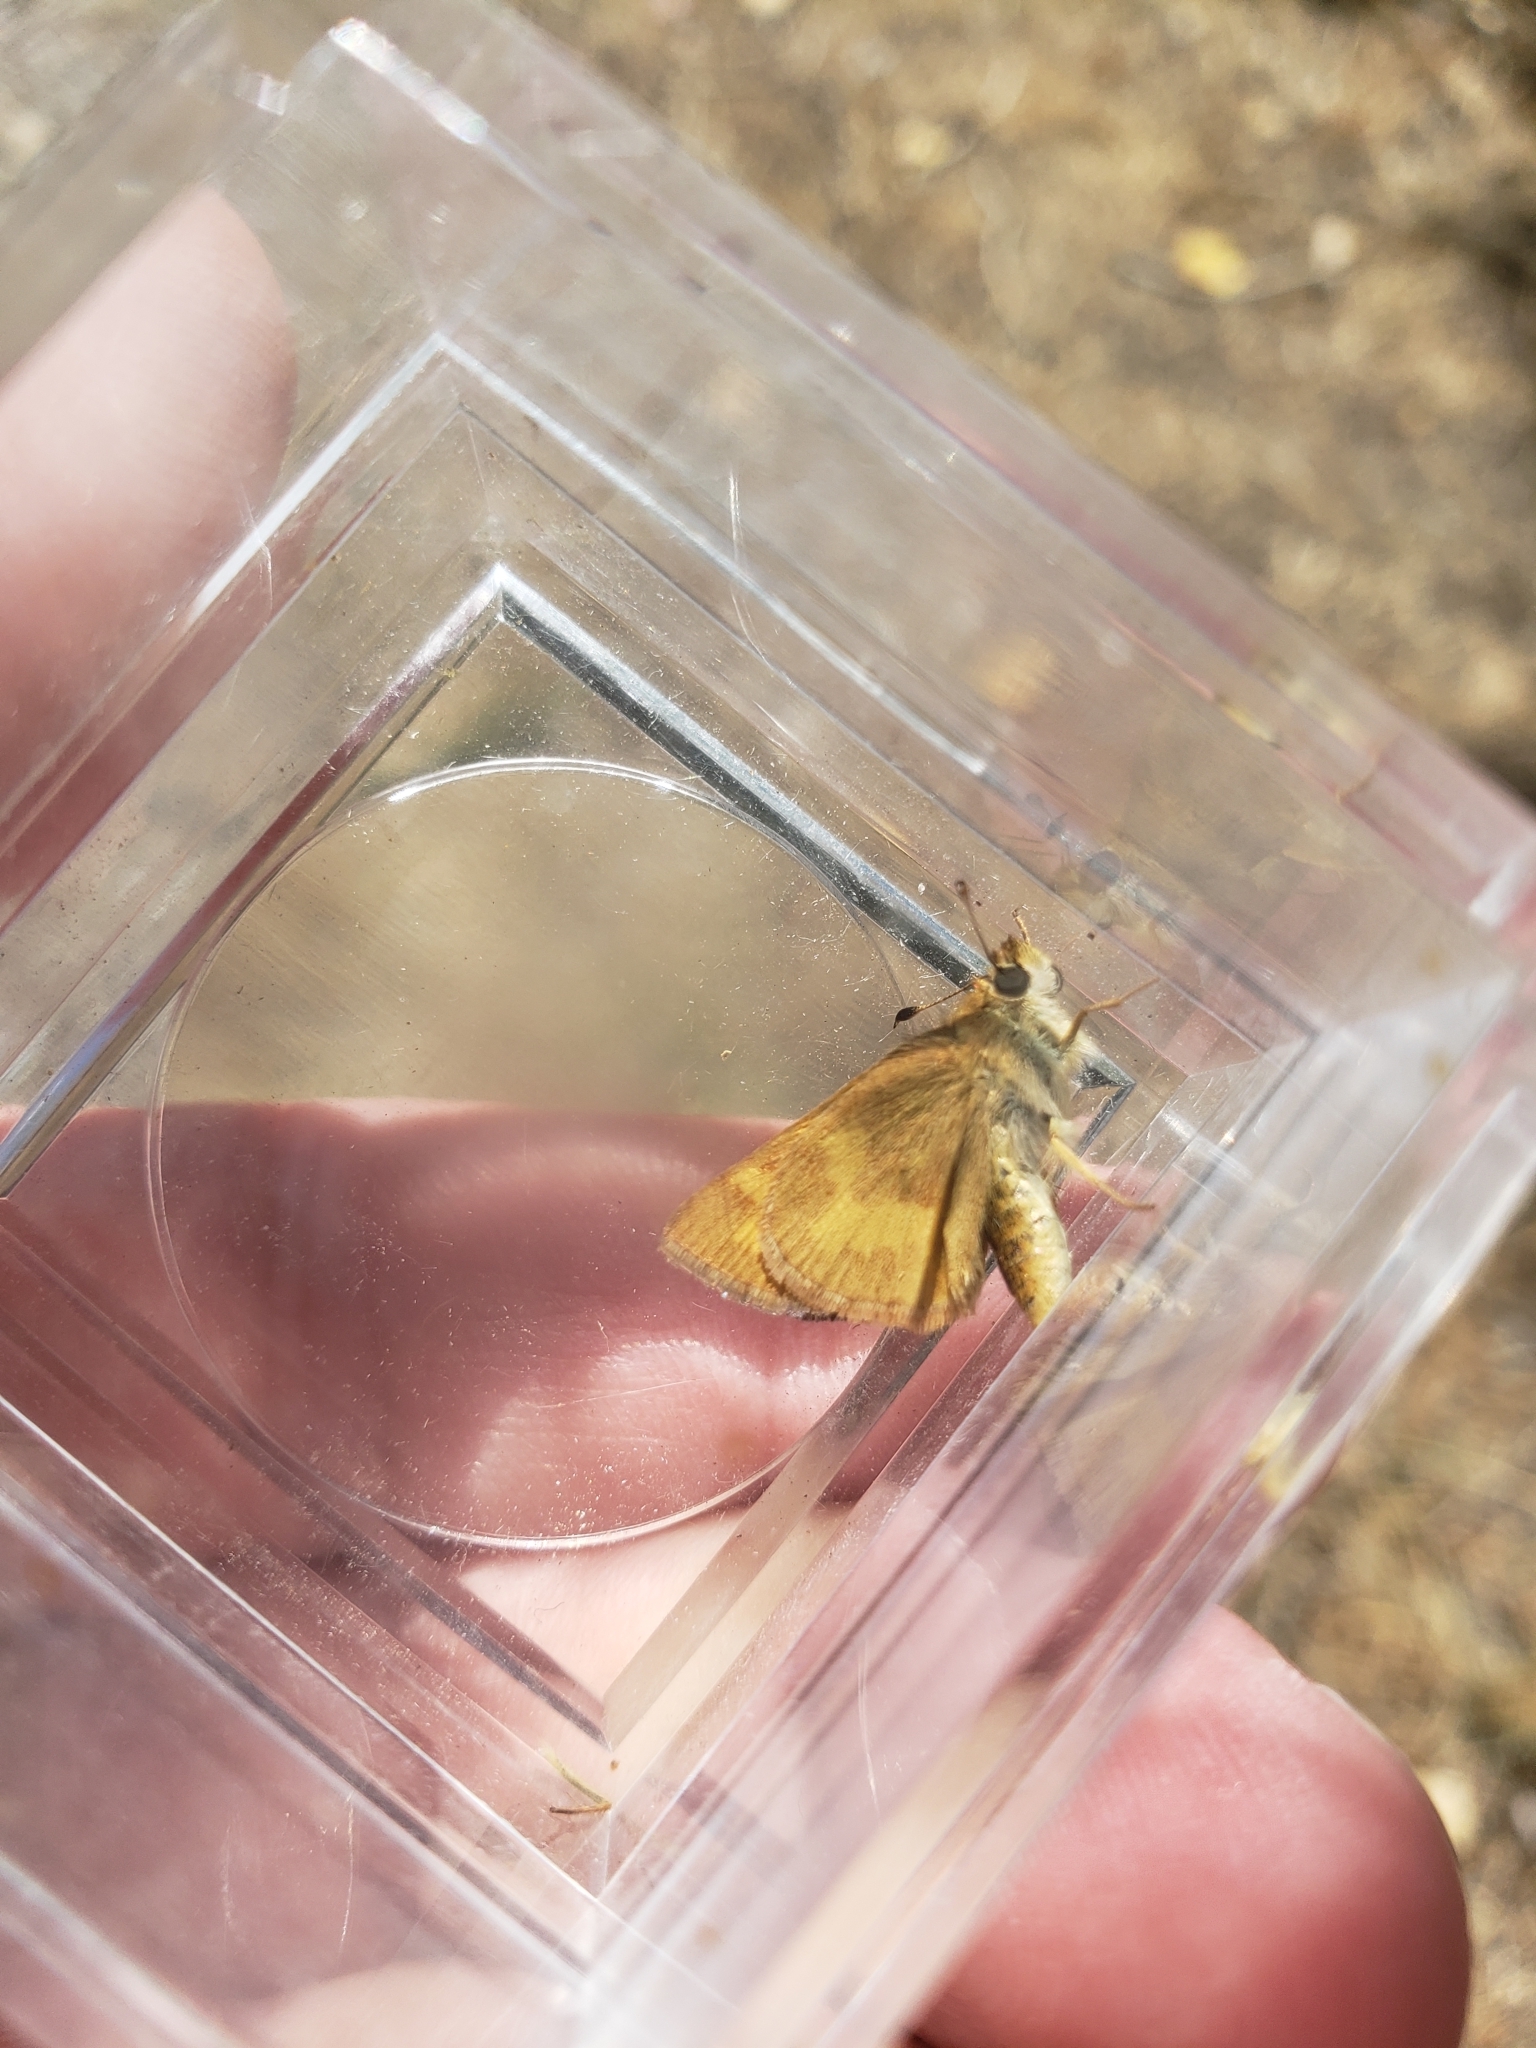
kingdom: Animalia
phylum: Arthropoda
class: Insecta
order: Lepidoptera
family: Hesperiidae
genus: Ochlodes
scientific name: Ochlodes sylvanoides
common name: Woodland skipper
